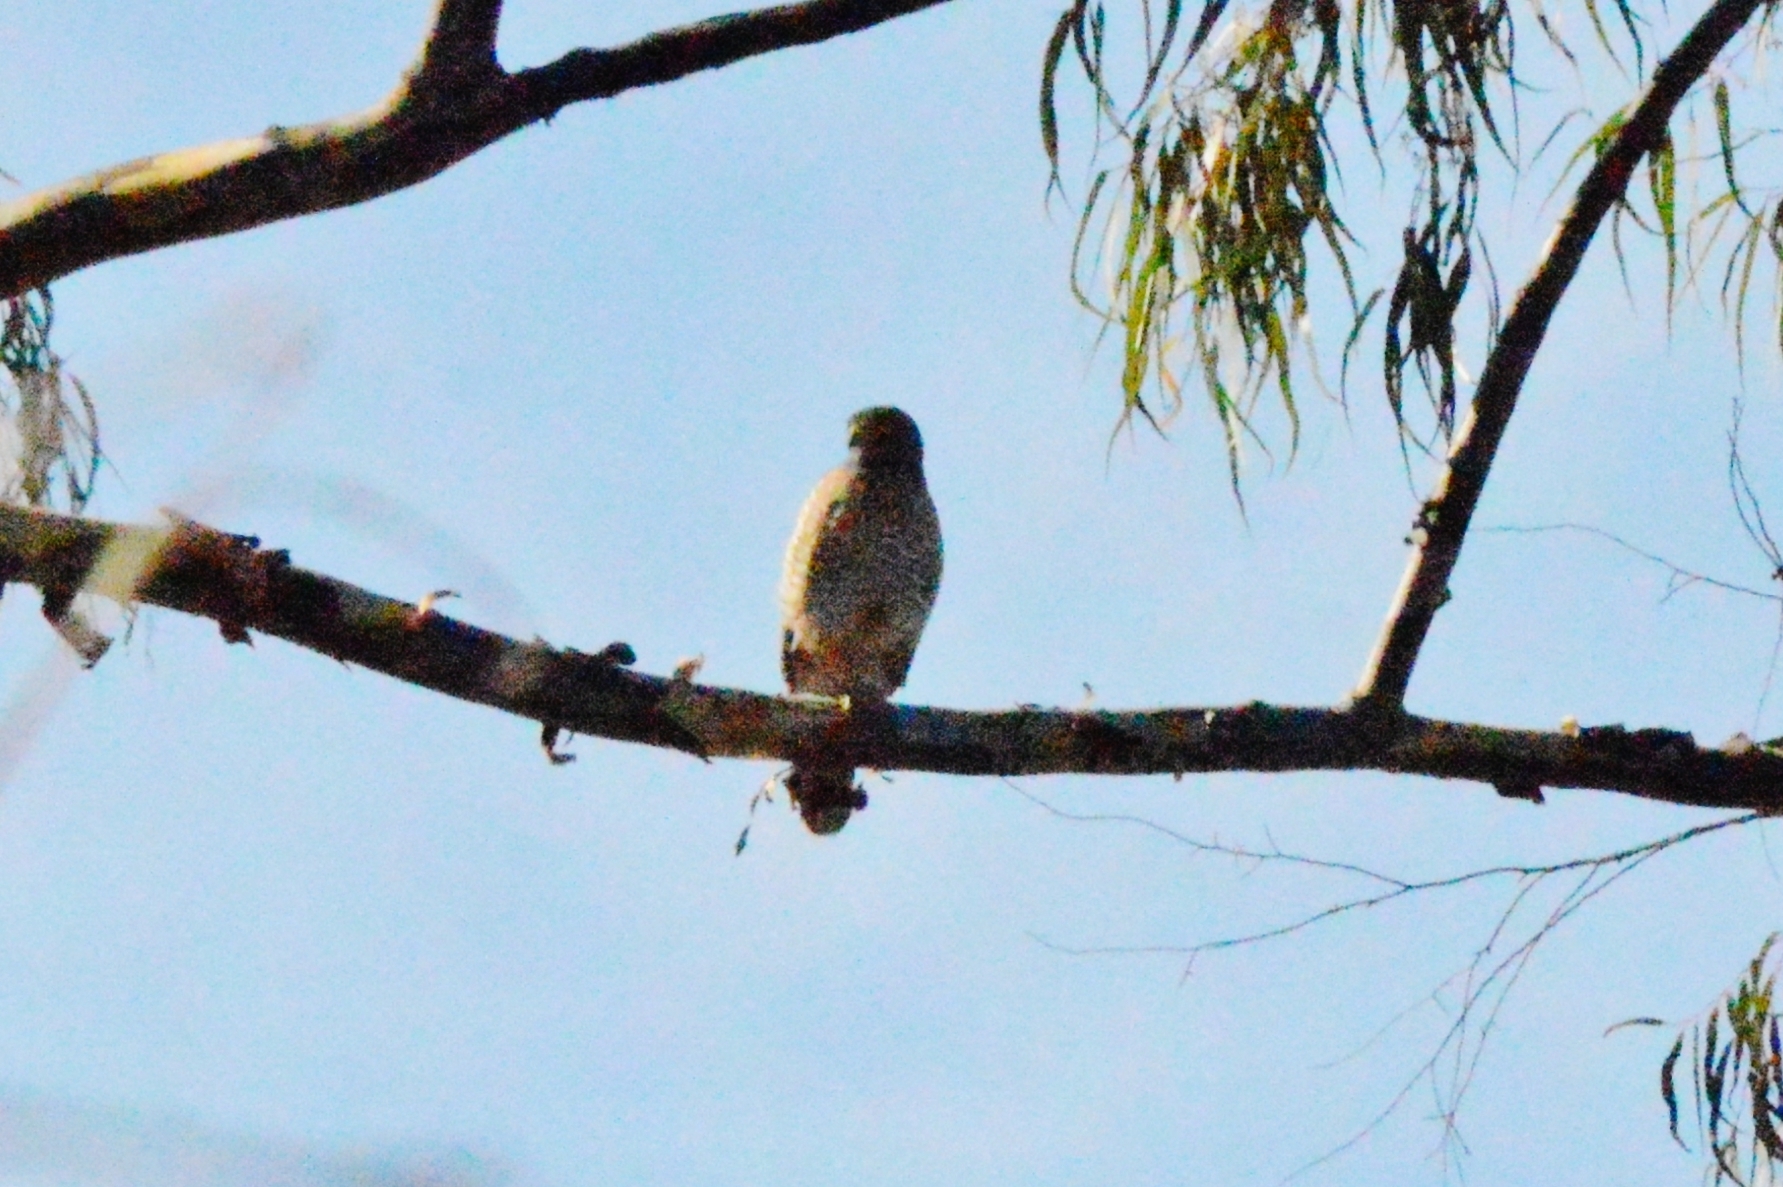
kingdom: Animalia
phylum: Chordata
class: Aves
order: Accipitriformes
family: Accipitridae
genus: Rupornis
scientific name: Rupornis magnirostris
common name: Roadside hawk
